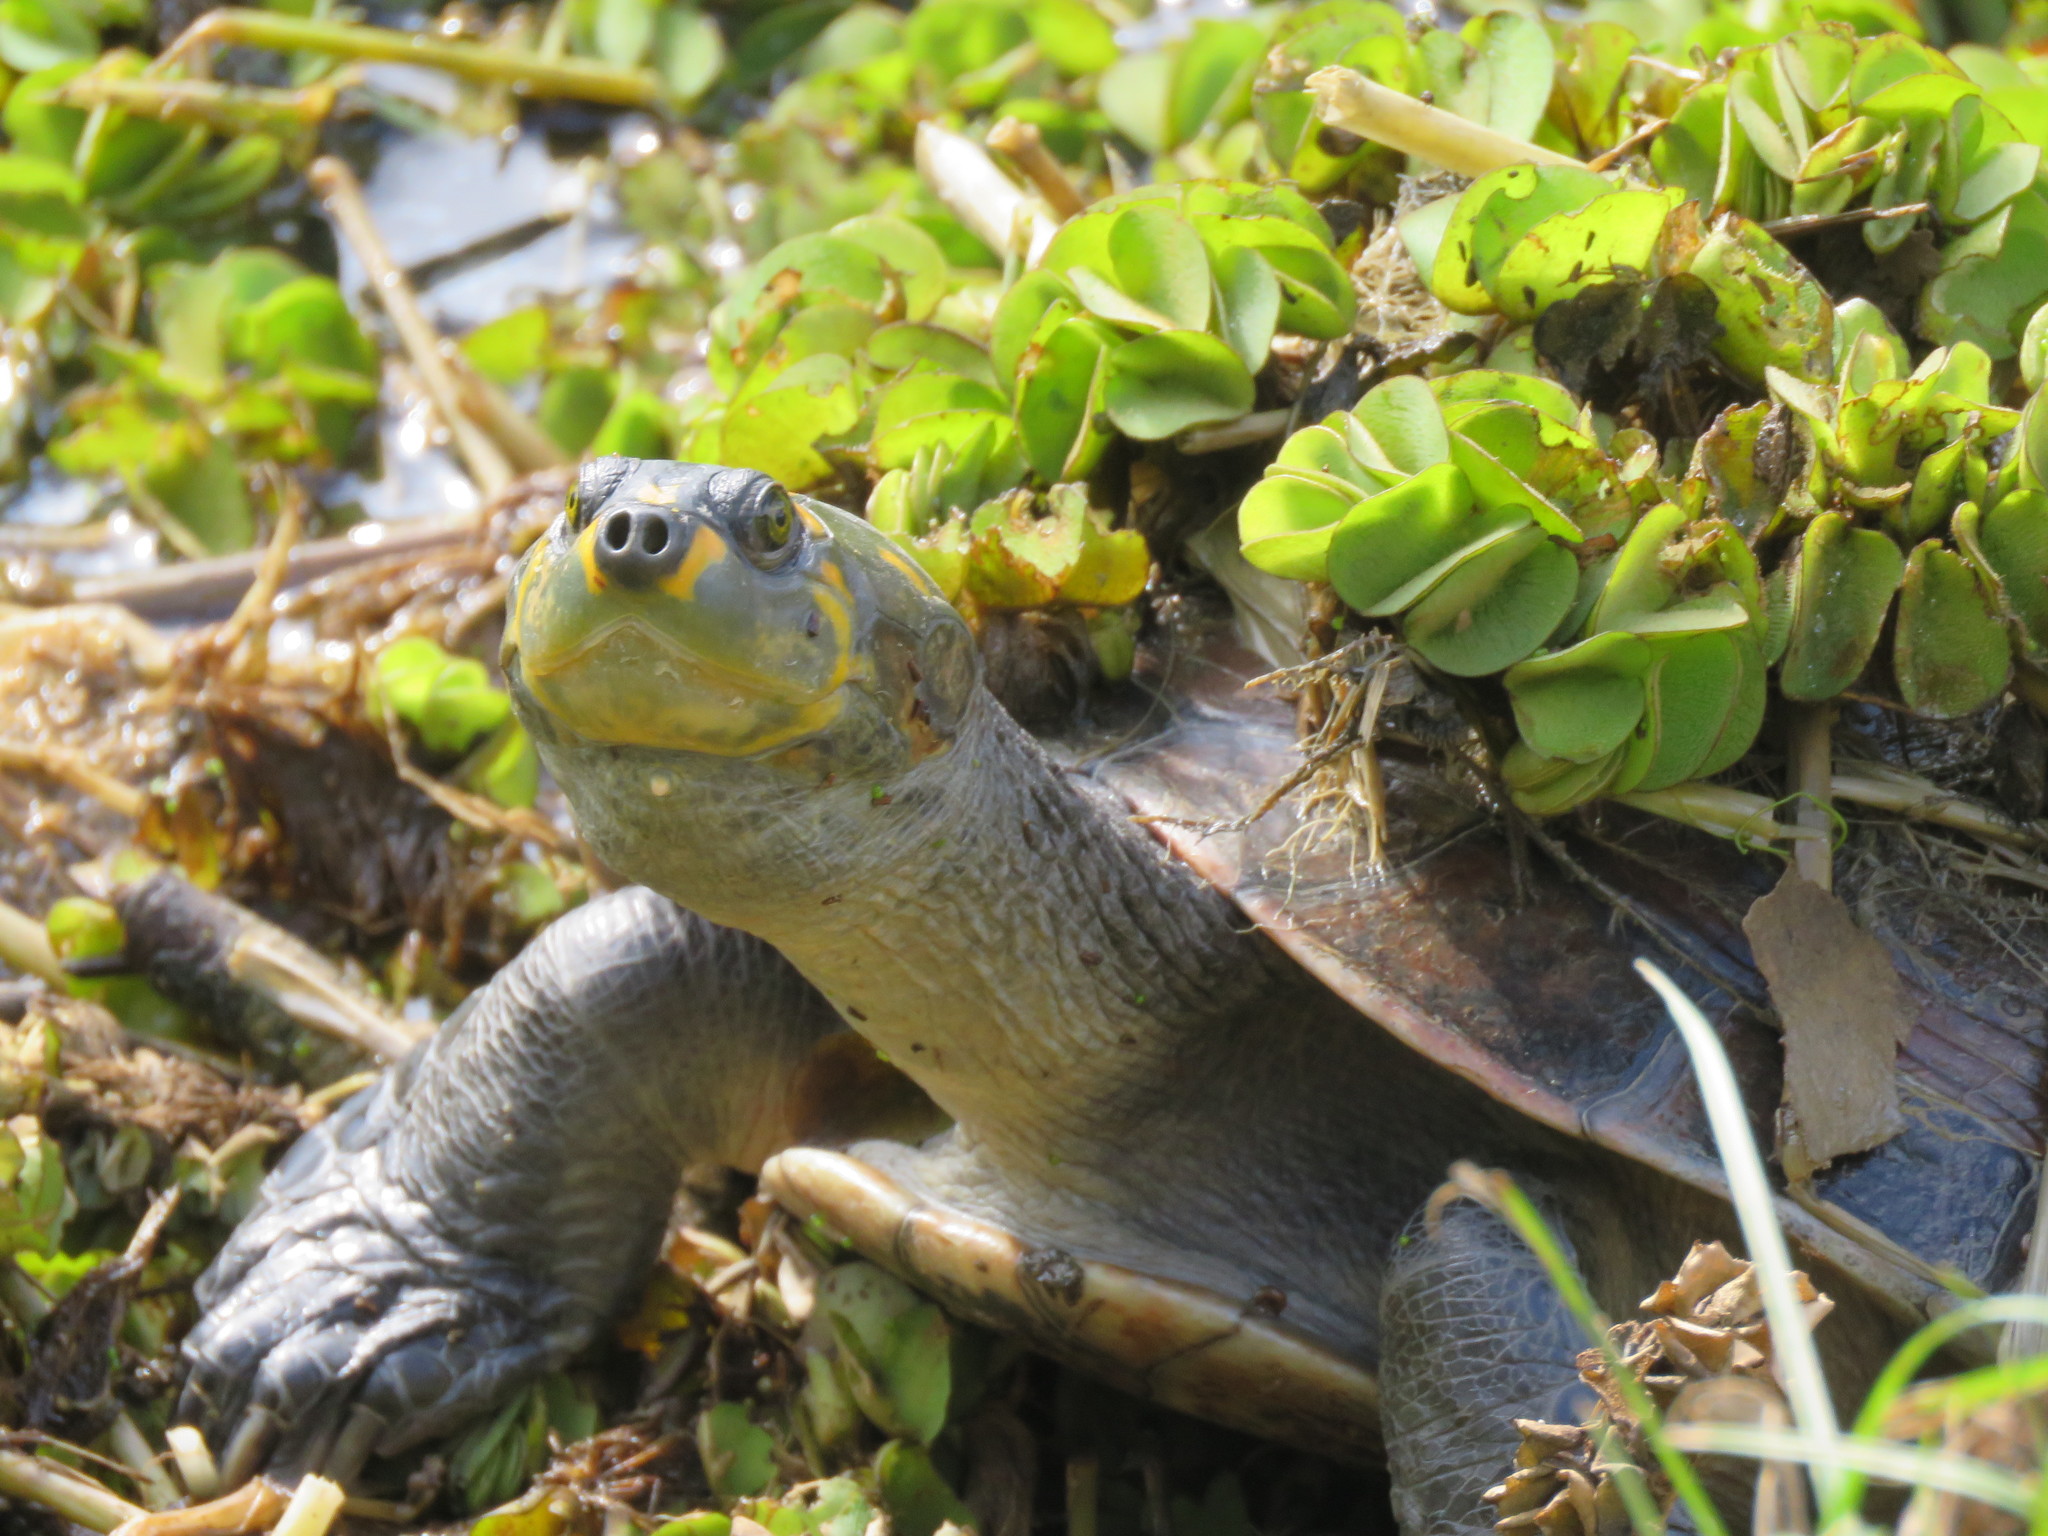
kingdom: Animalia
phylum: Chordata
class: Testudines
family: Podocnemididae
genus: Podocnemis
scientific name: Podocnemis unifilis
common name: Yellow-spotted amazon river turtle
